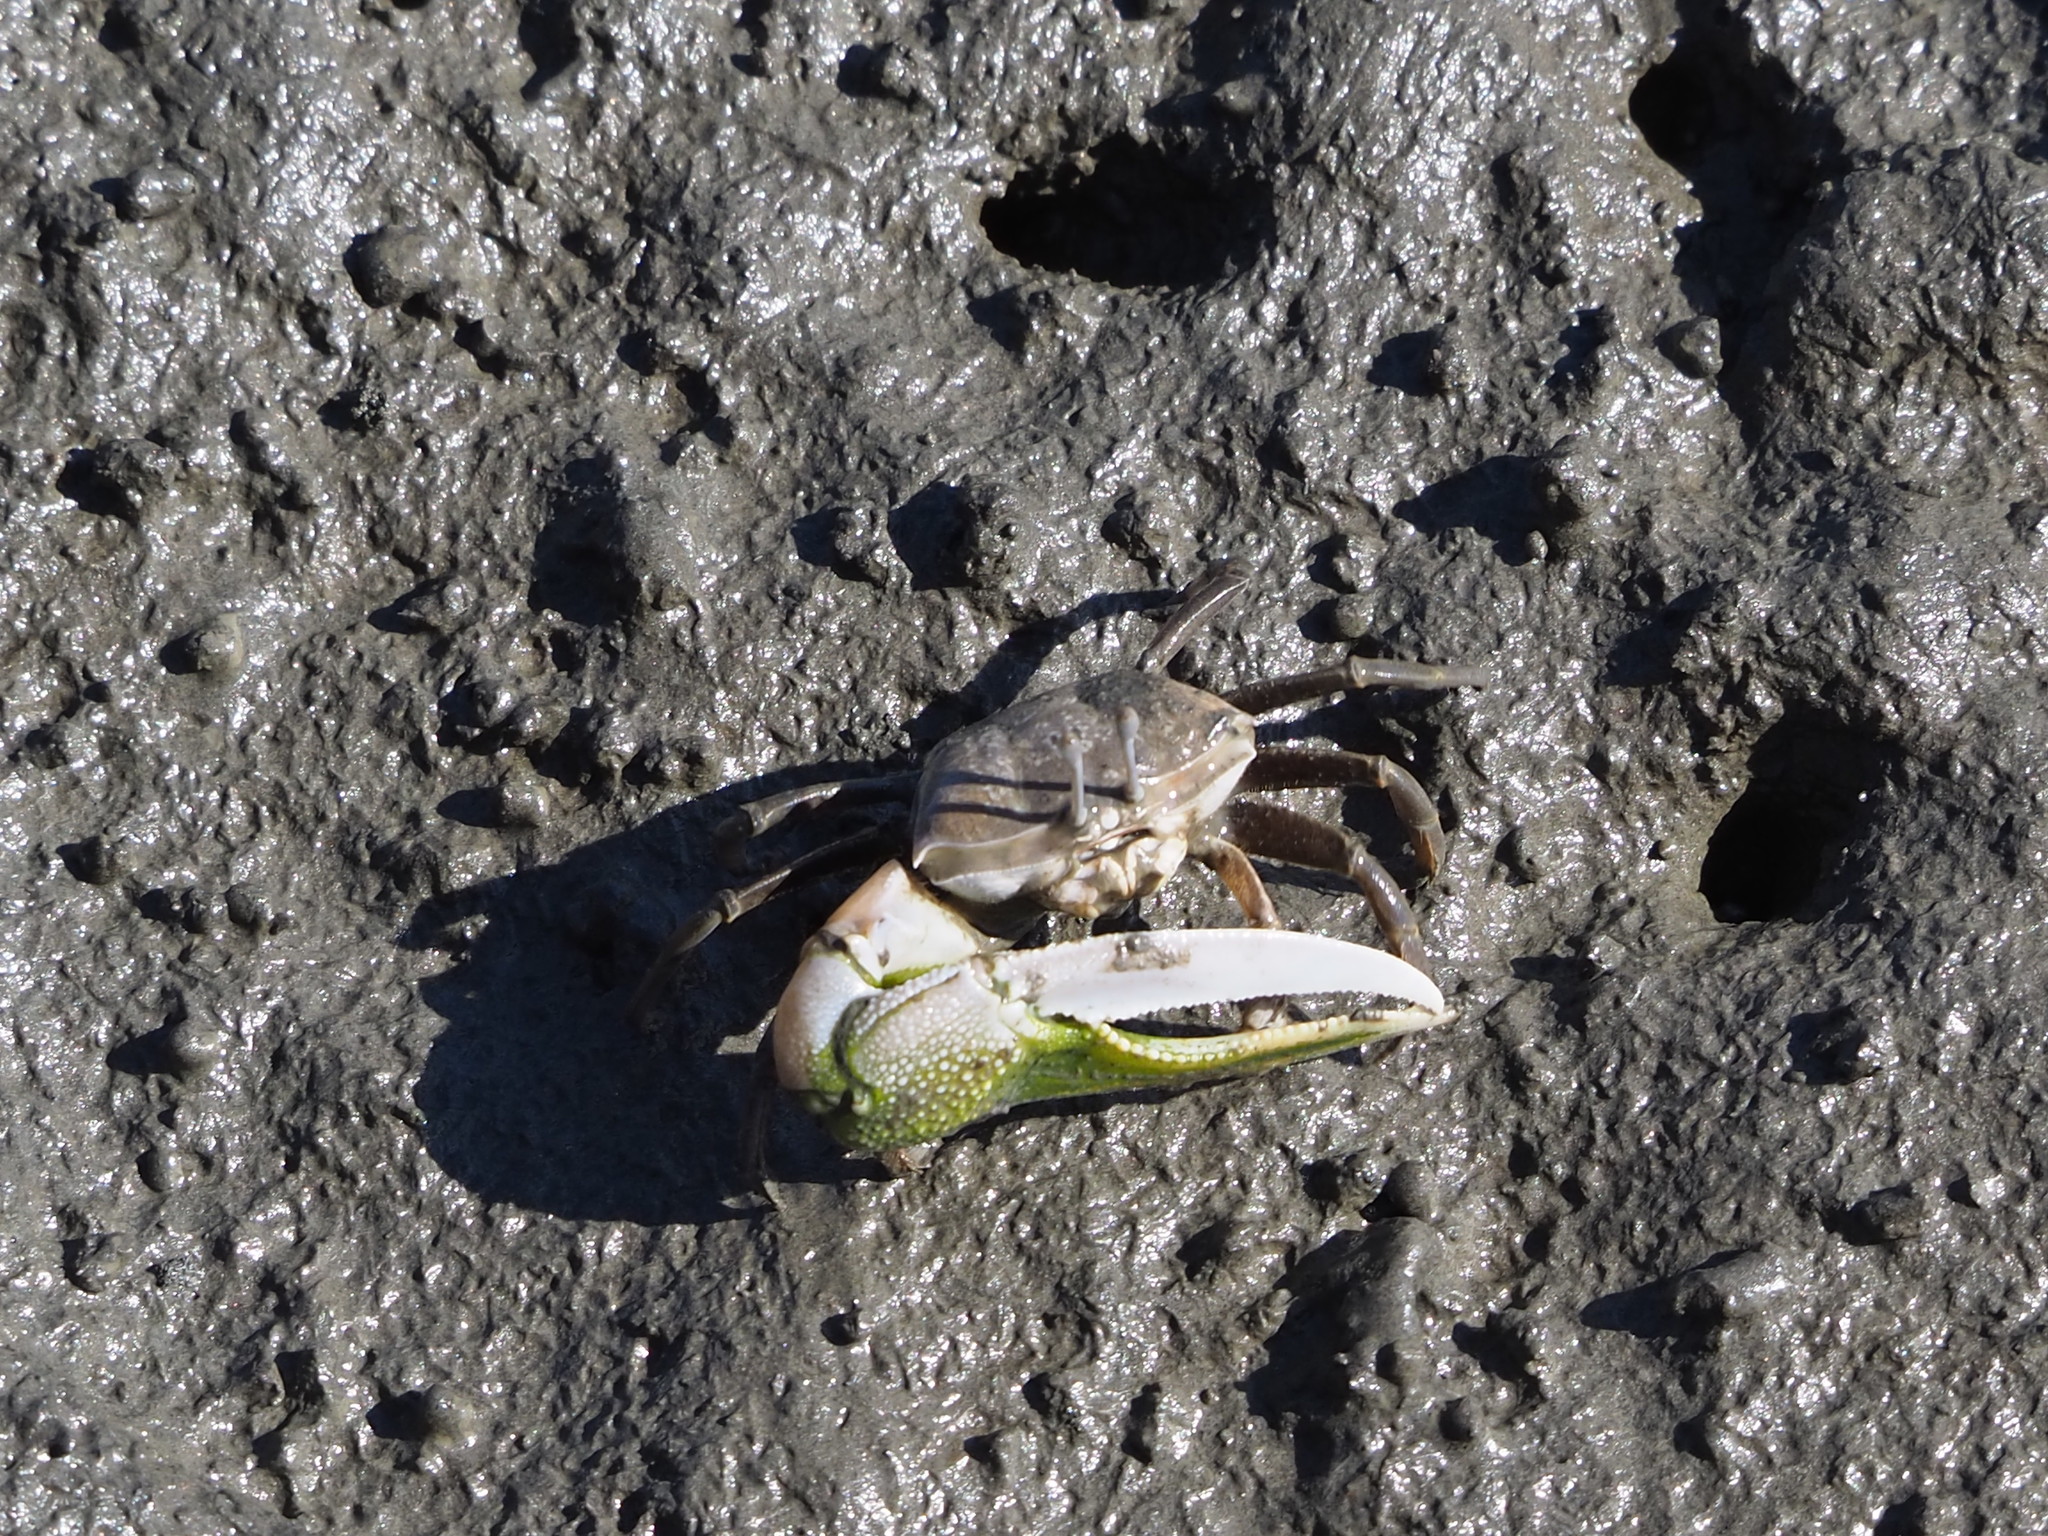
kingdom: Animalia
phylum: Arthropoda
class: Malacostraca
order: Decapoda
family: Ocypodidae
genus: Gelasimus
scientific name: Gelasimus borealis
